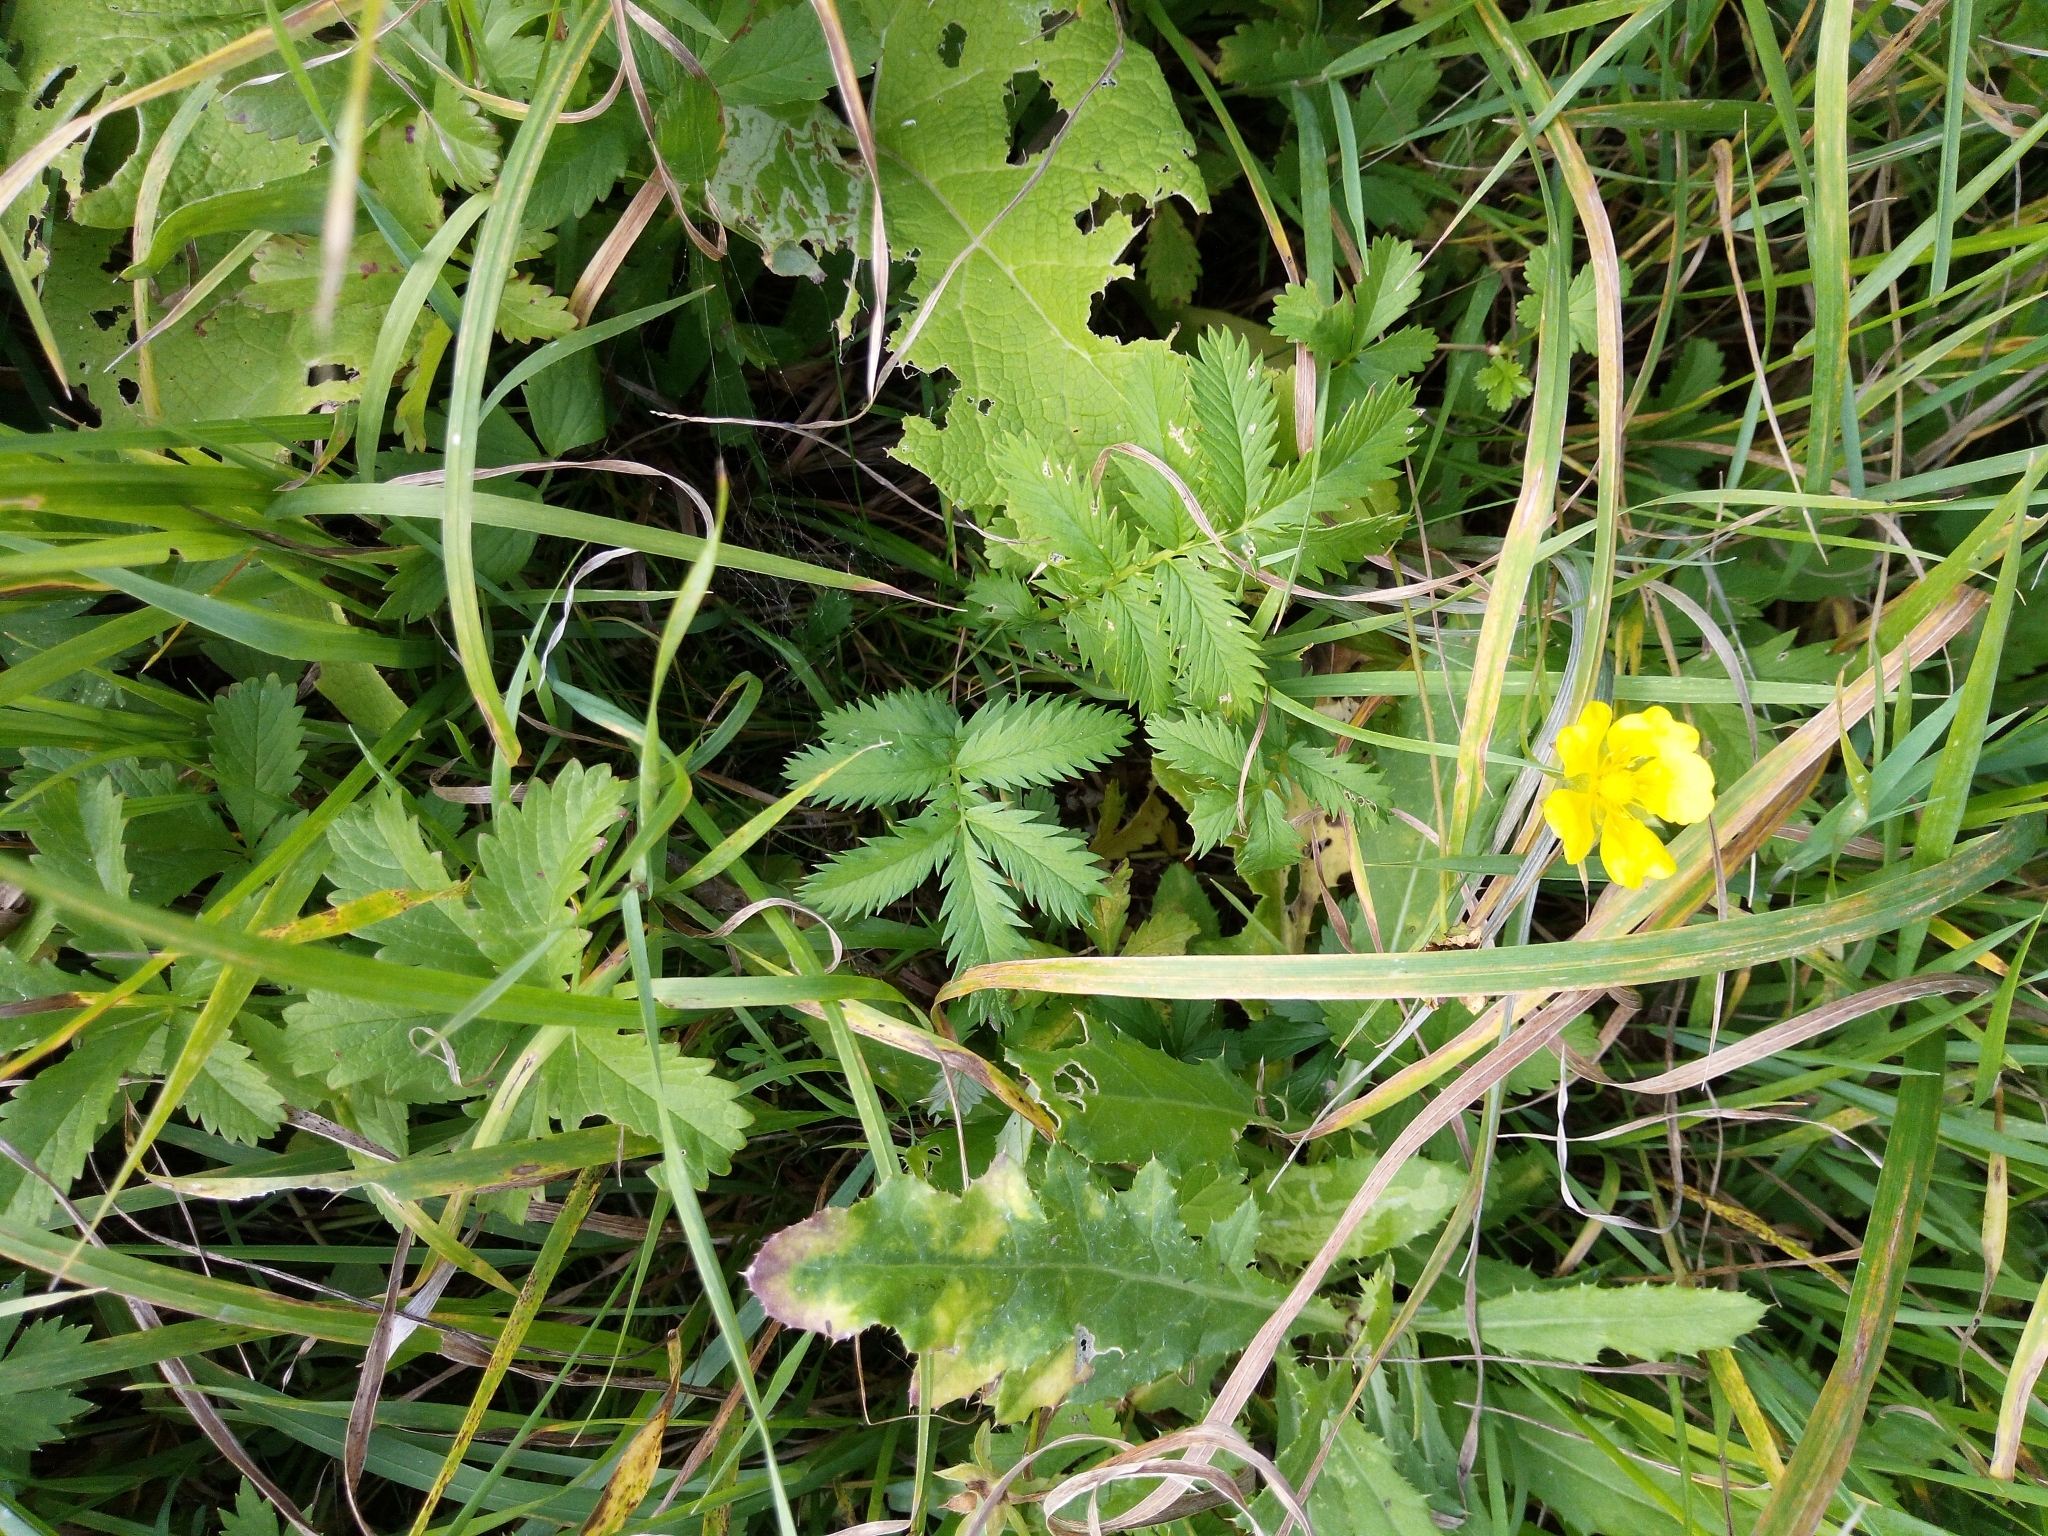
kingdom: Plantae
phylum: Tracheophyta
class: Magnoliopsida
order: Rosales
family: Rosaceae
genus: Argentina
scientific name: Argentina anserina
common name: Common silverweed
